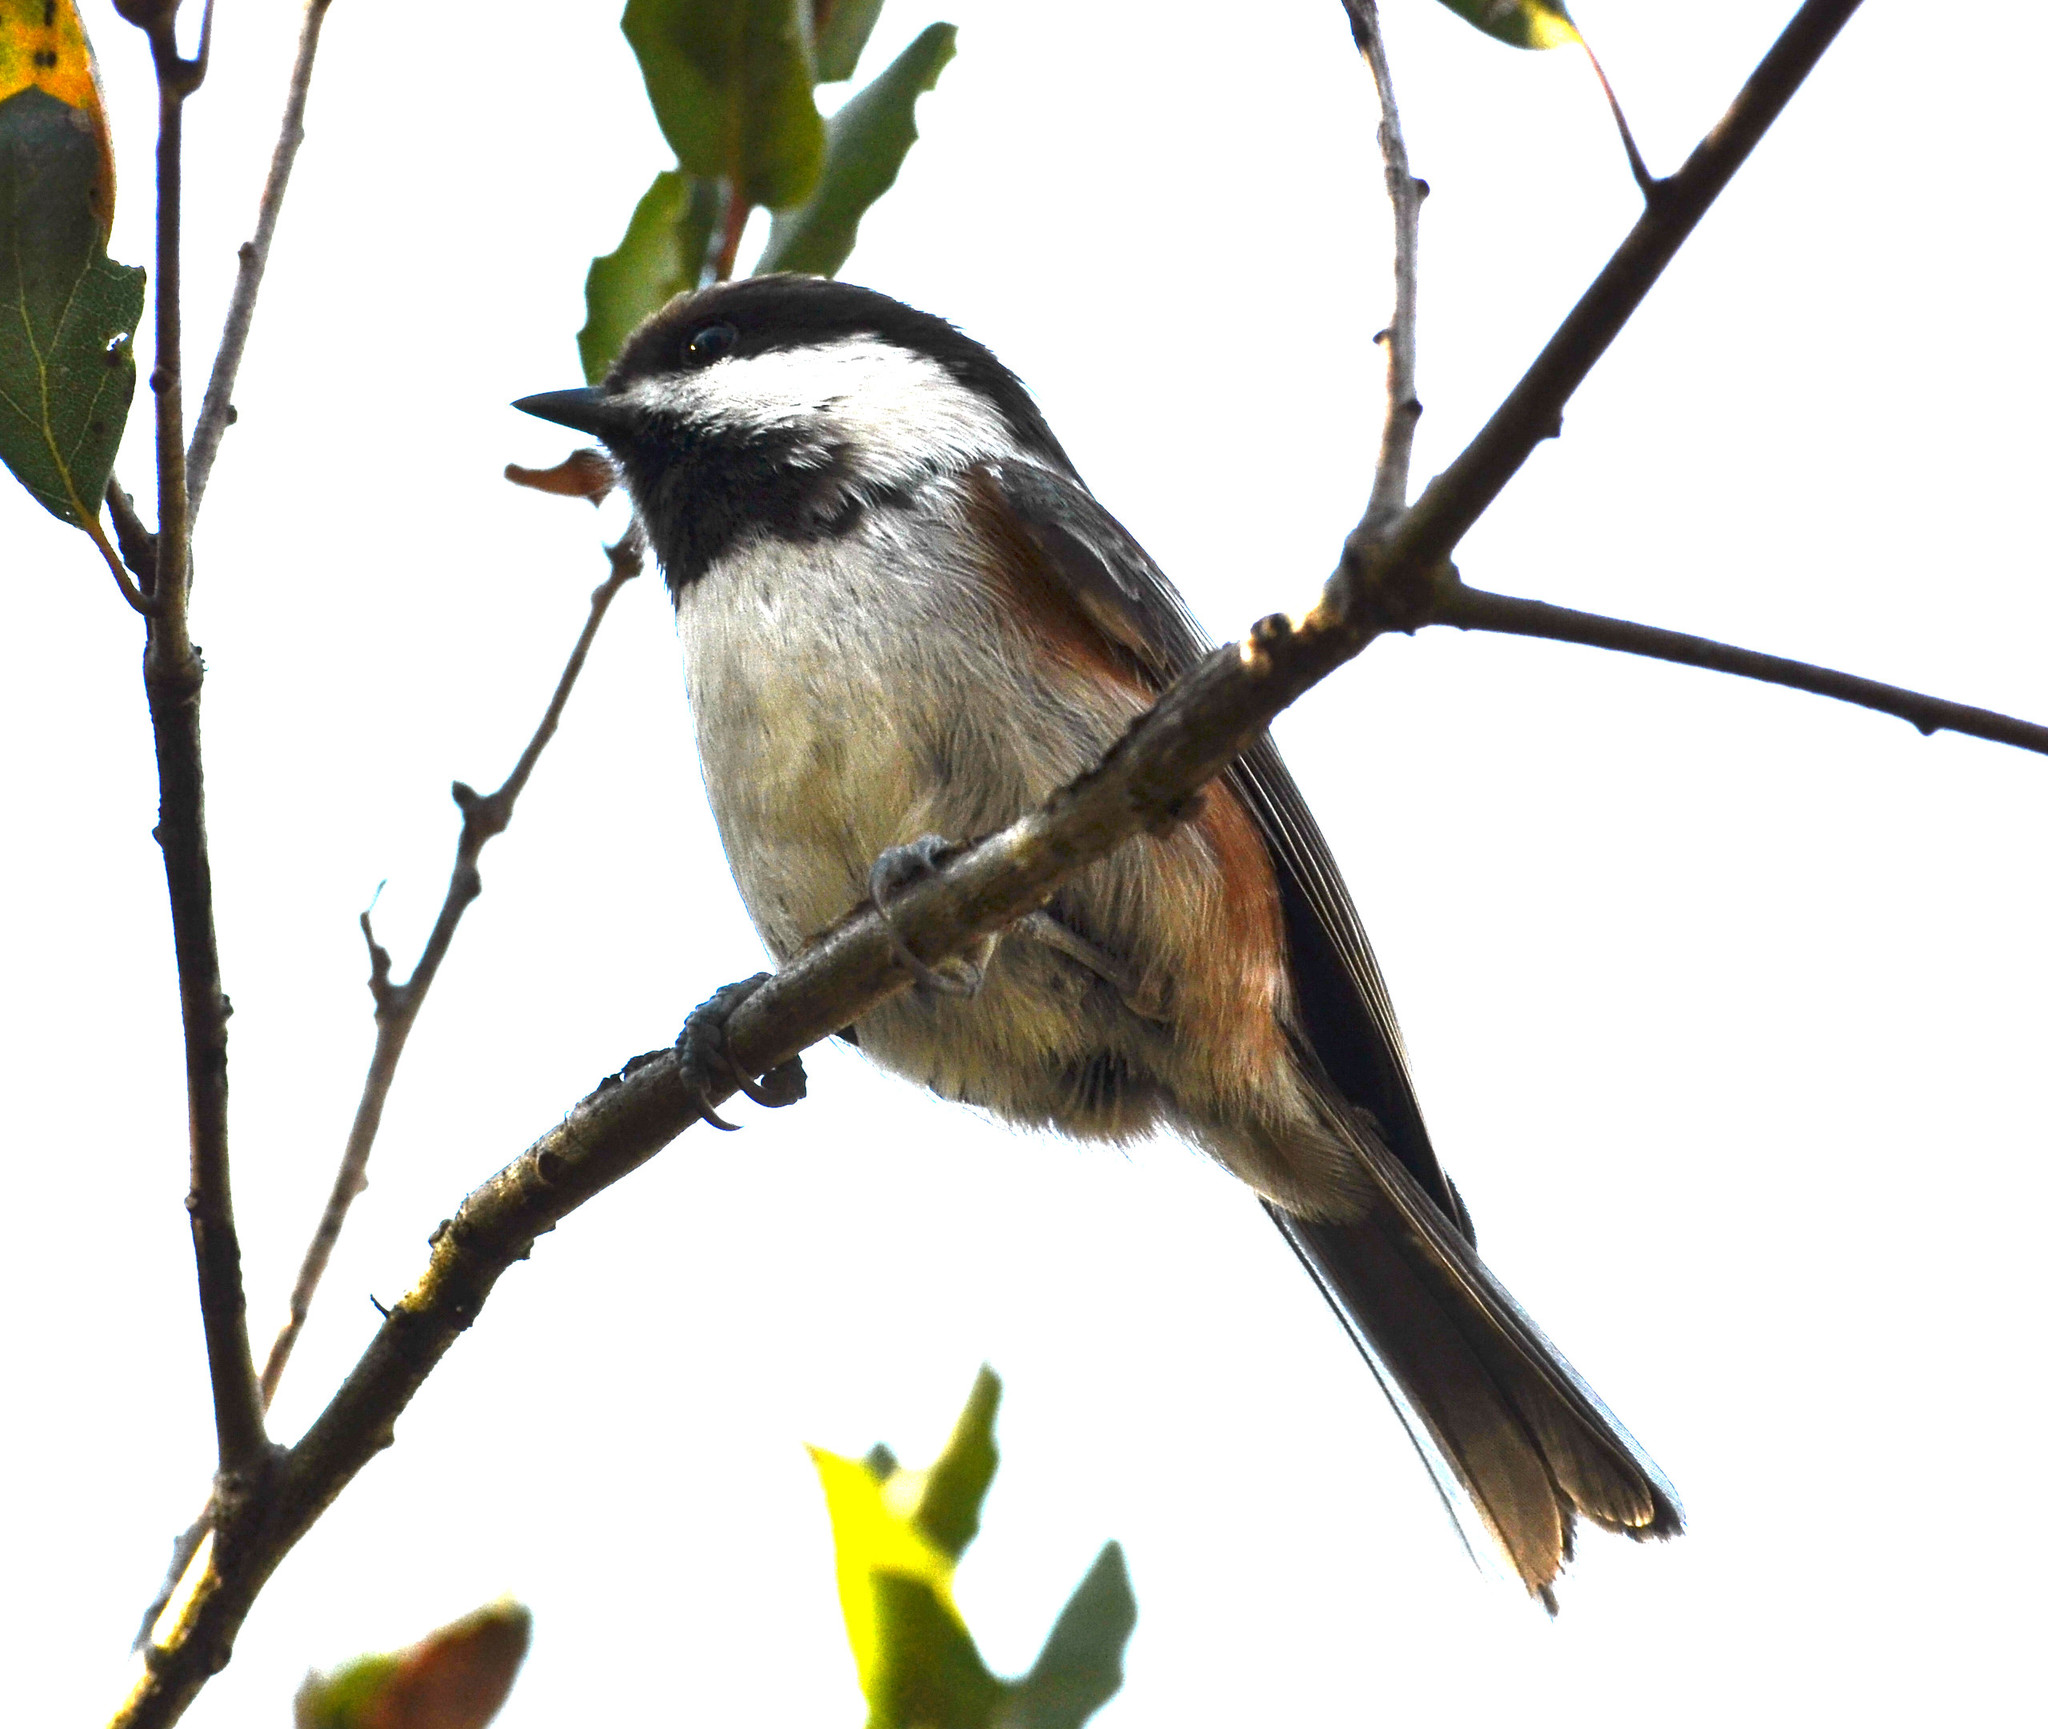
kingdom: Animalia
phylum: Chordata
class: Aves
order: Passeriformes
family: Paridae
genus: Poecile
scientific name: Poecile rufescens
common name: Chestnut-backed chickadee
